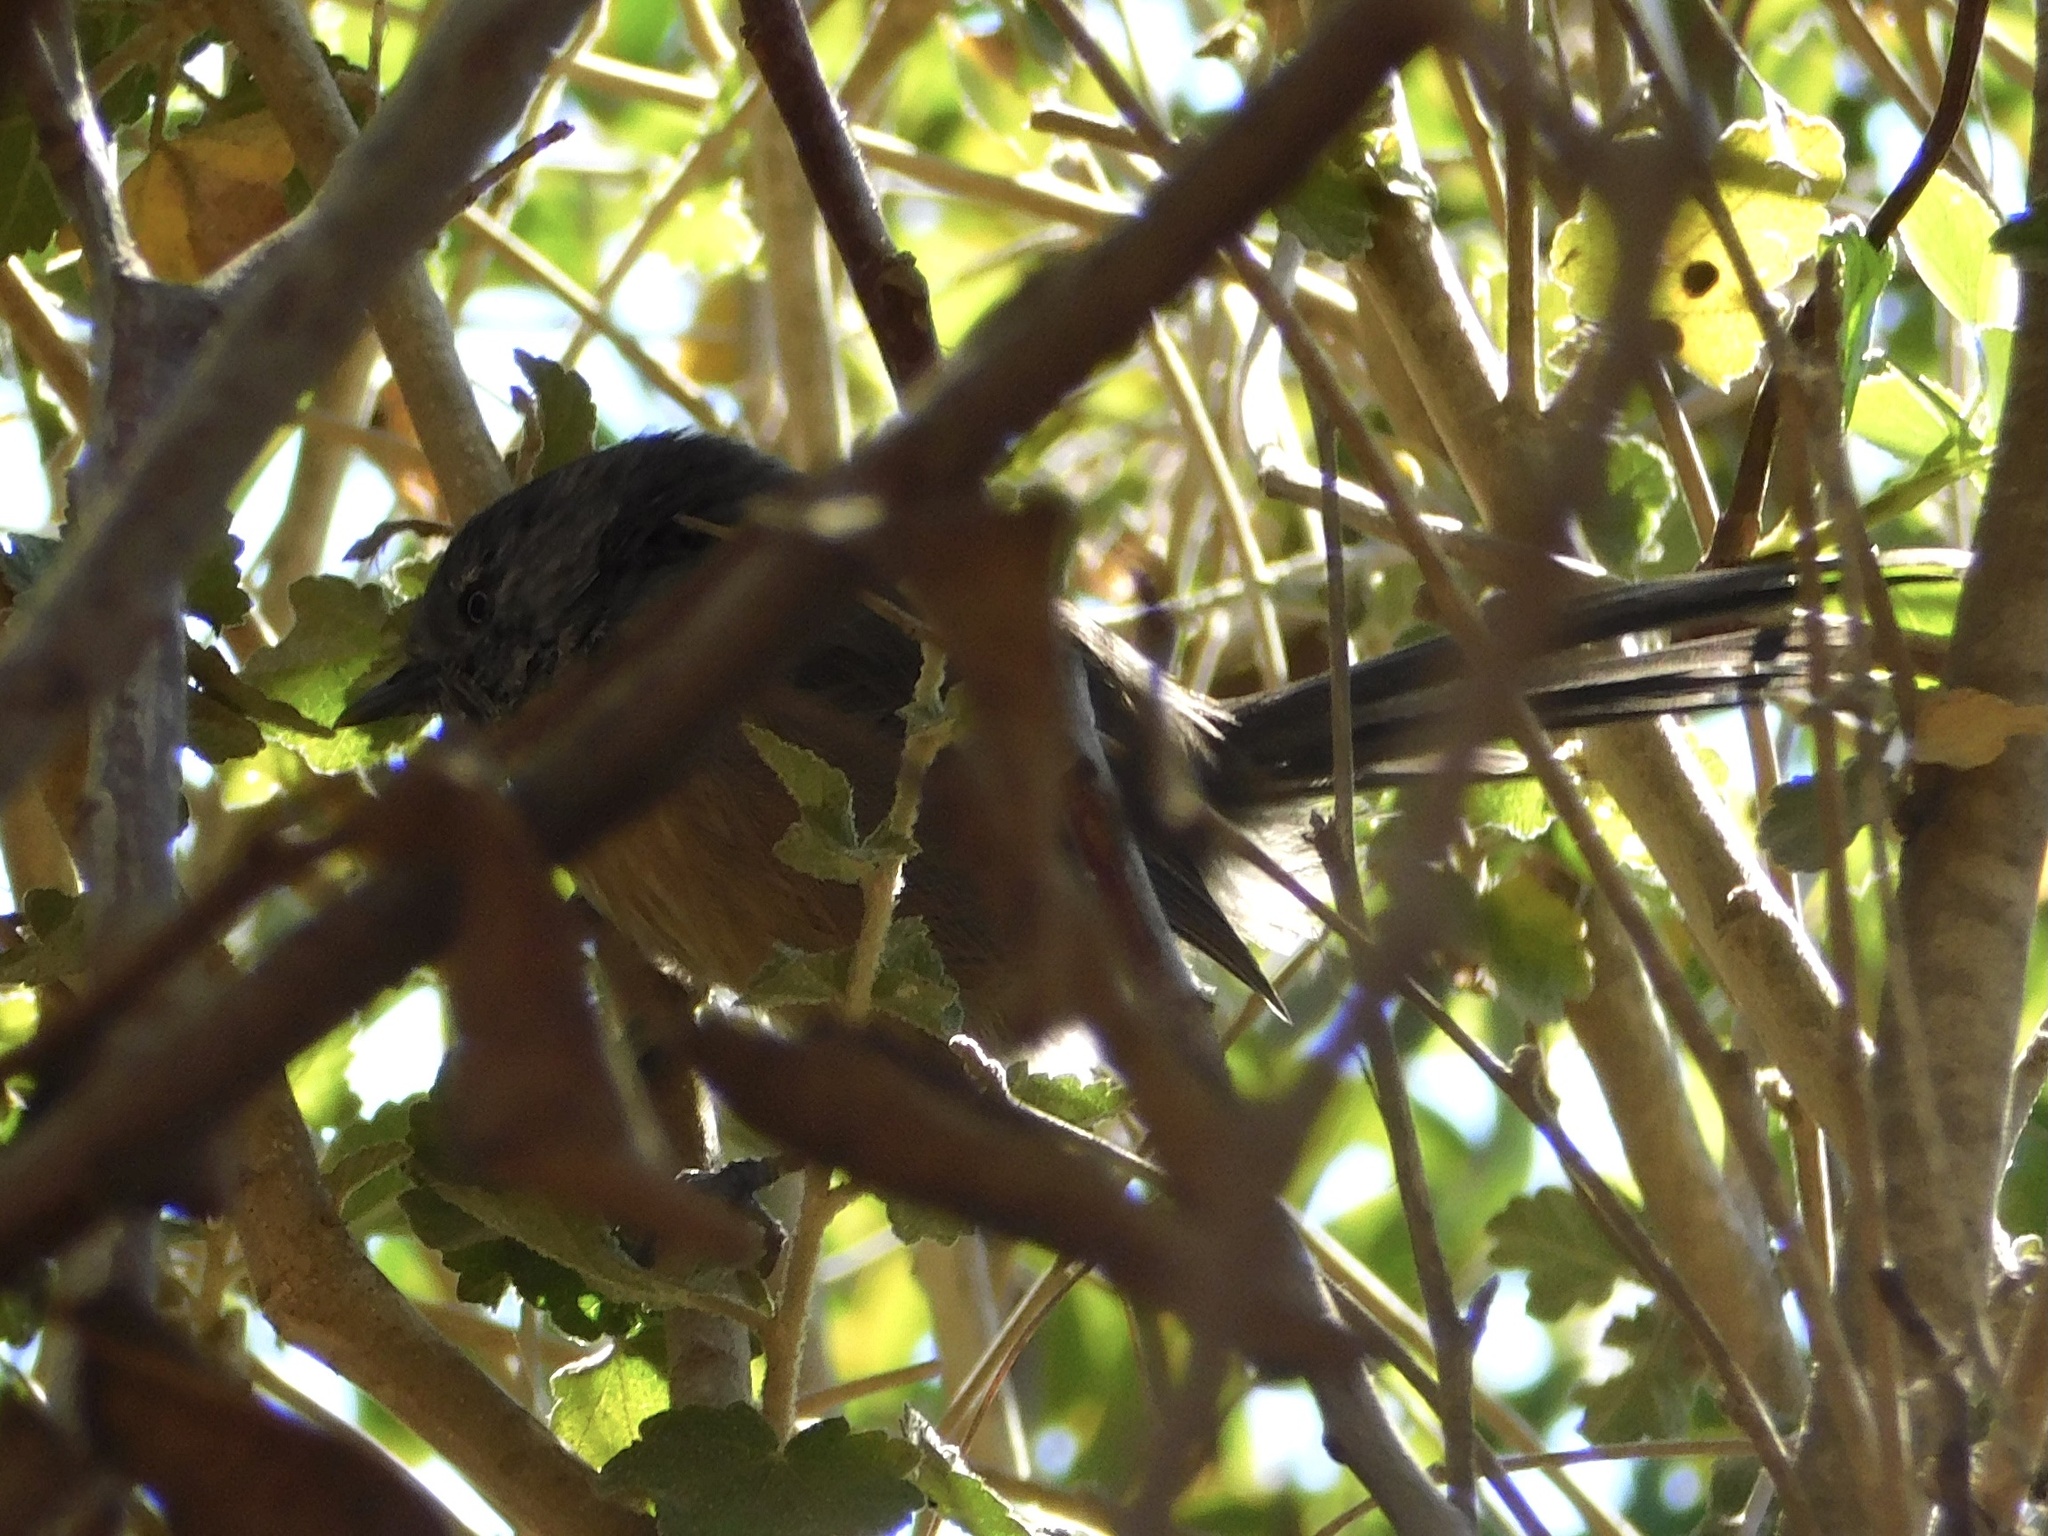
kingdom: Animalia
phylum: Chordata
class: Aves
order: Passeriformes
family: Sylviidae
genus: Chamaea
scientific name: Chamaea fasciata
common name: Wrentit
